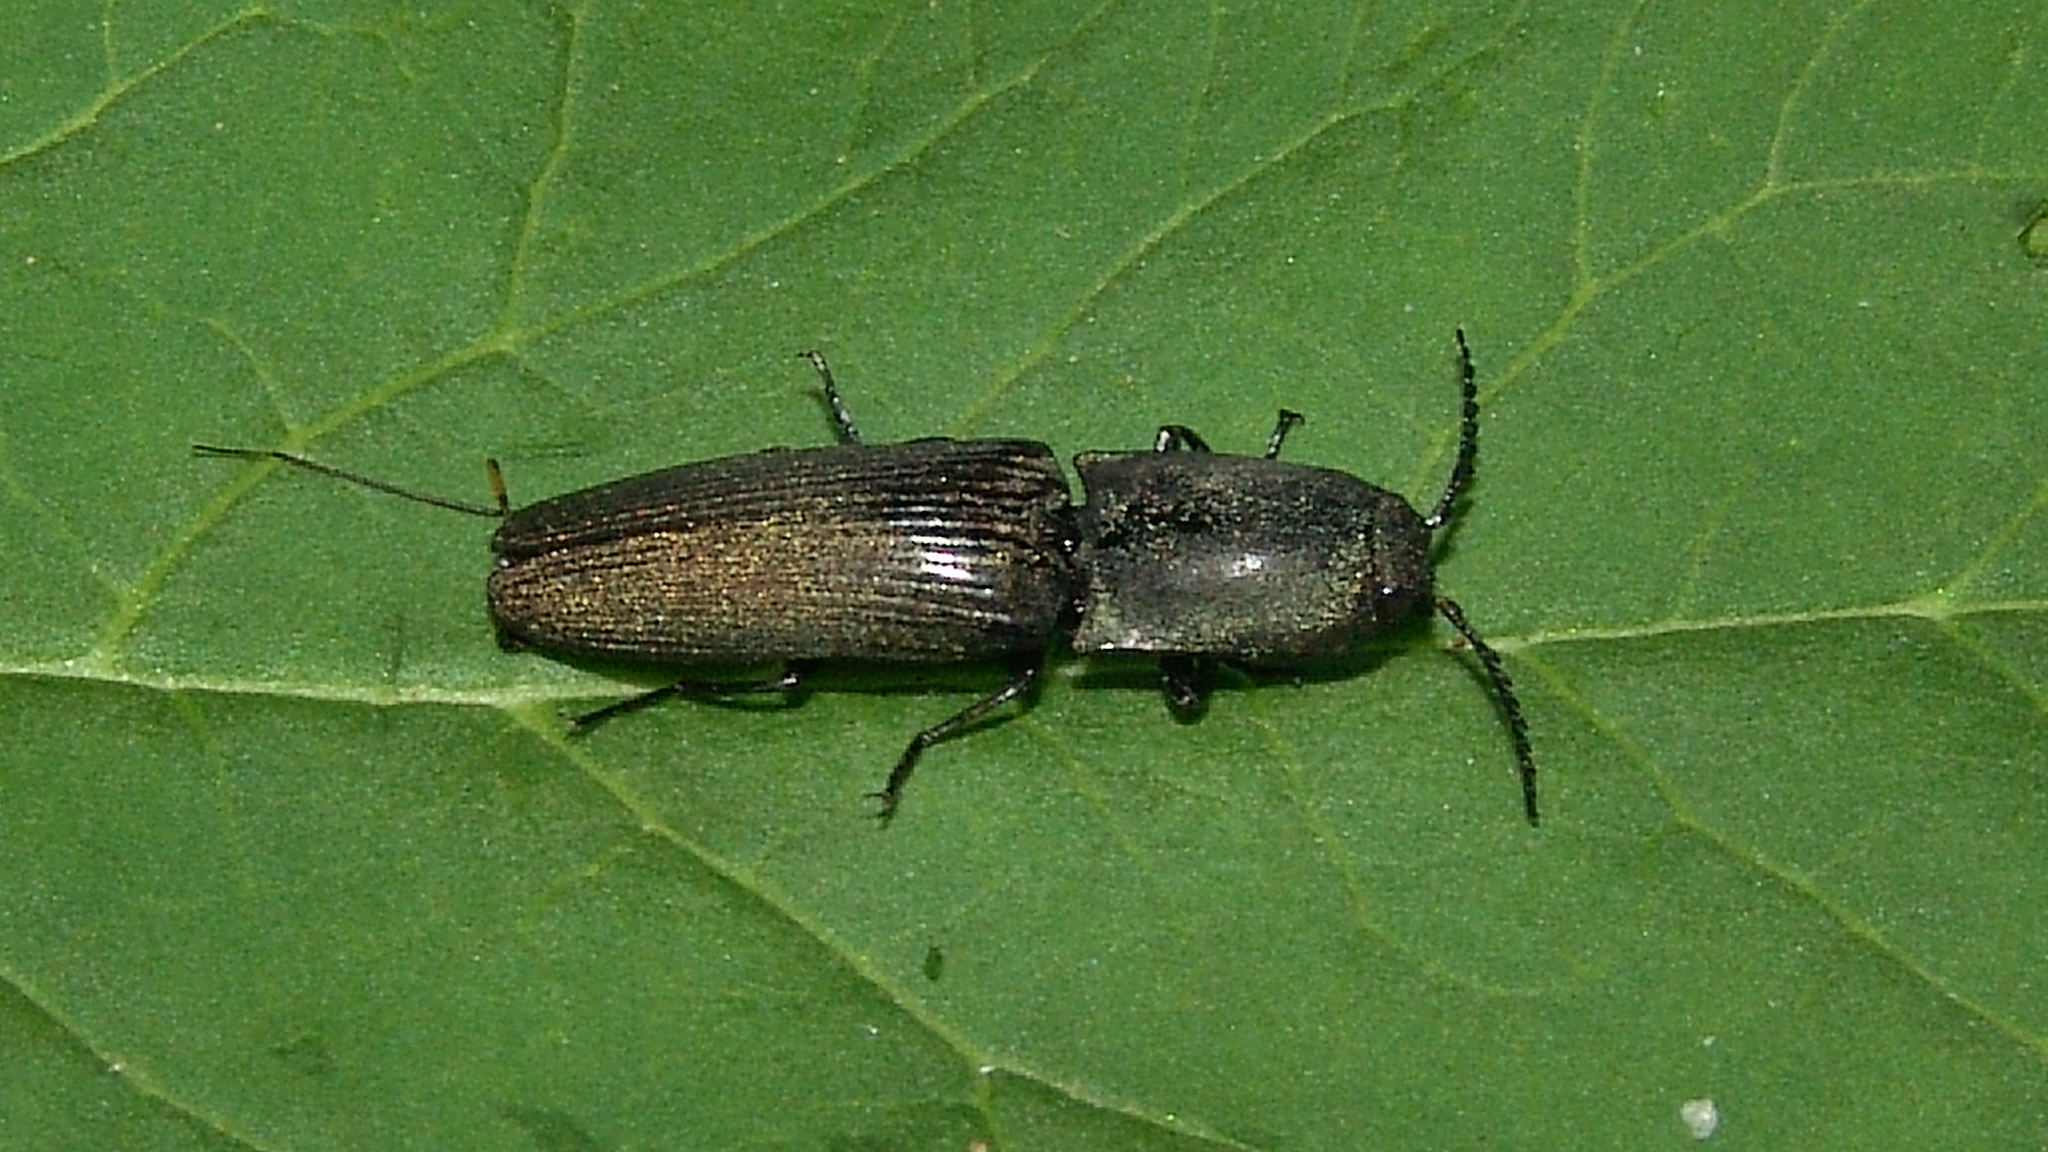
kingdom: Animalia
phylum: Arthropoda
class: Insecta
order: Coleoptera
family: Elateridae
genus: Chalcolepidius
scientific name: Chalcolepidius
